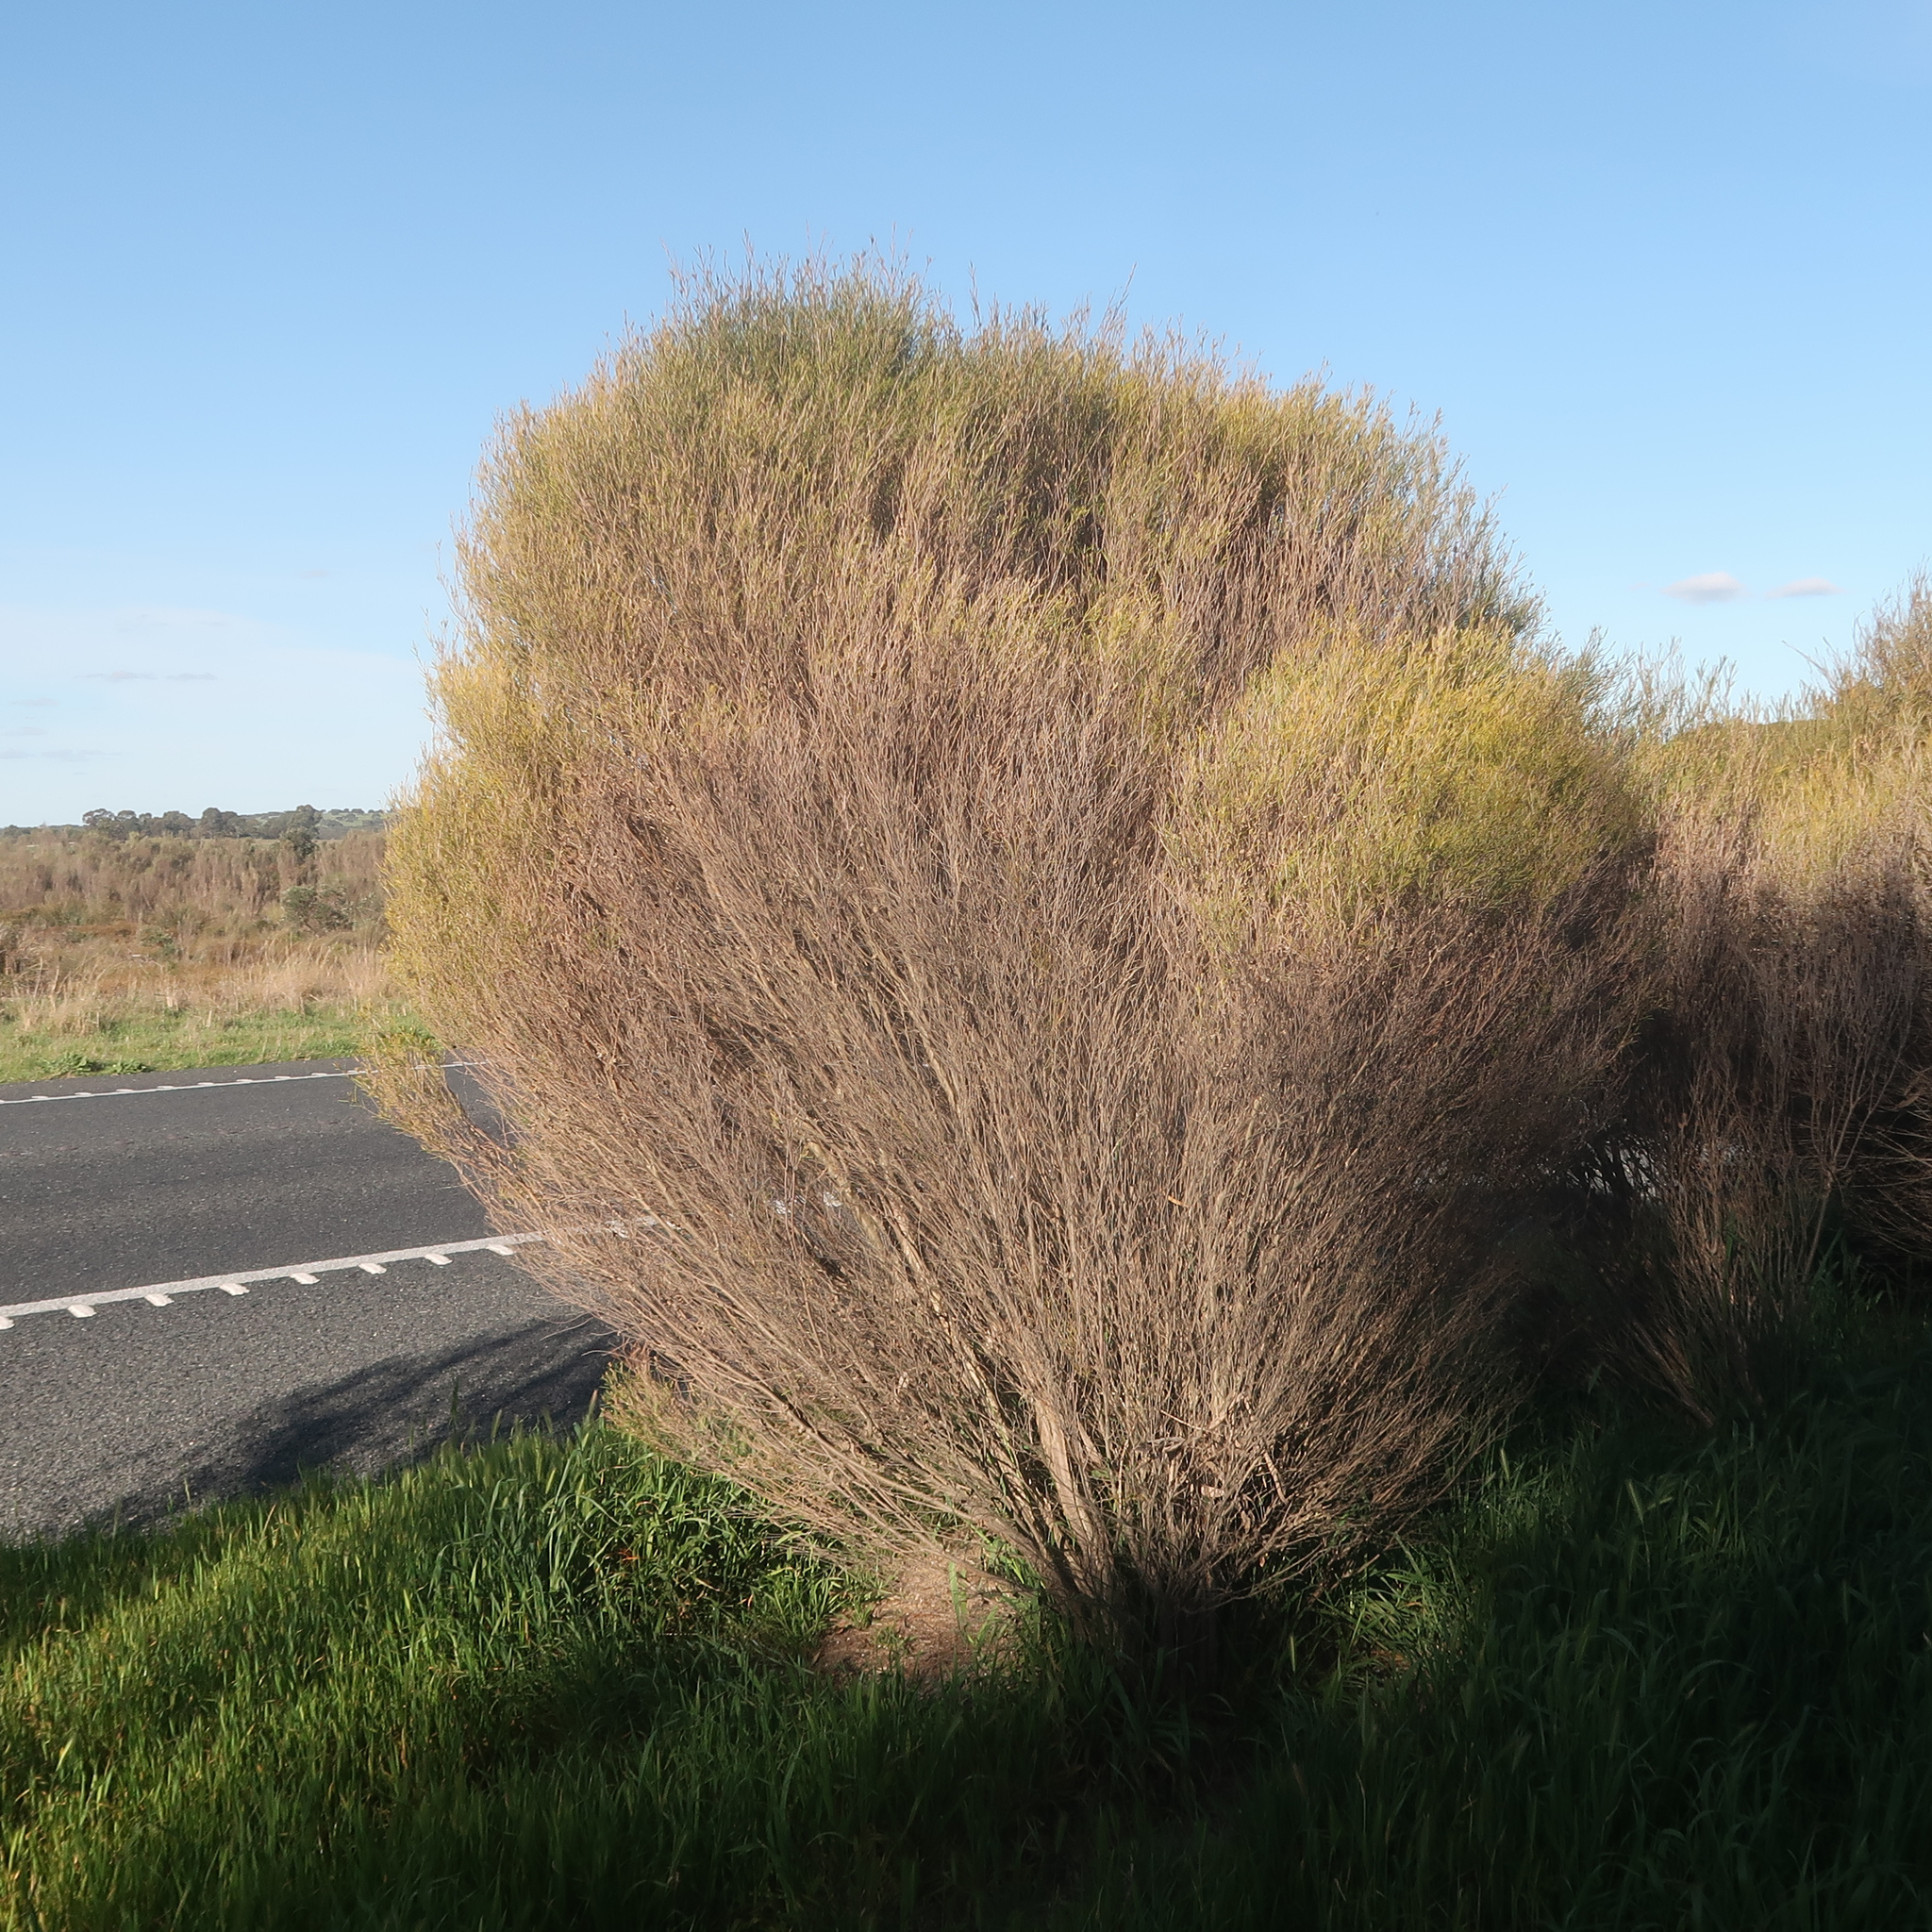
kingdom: Plantae
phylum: Tracheophyta
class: Magnoliopsida
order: Myrtales
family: Myrtaceae
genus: Melaleuca
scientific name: Melaleuca uncinata
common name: Broom honey myrtle
